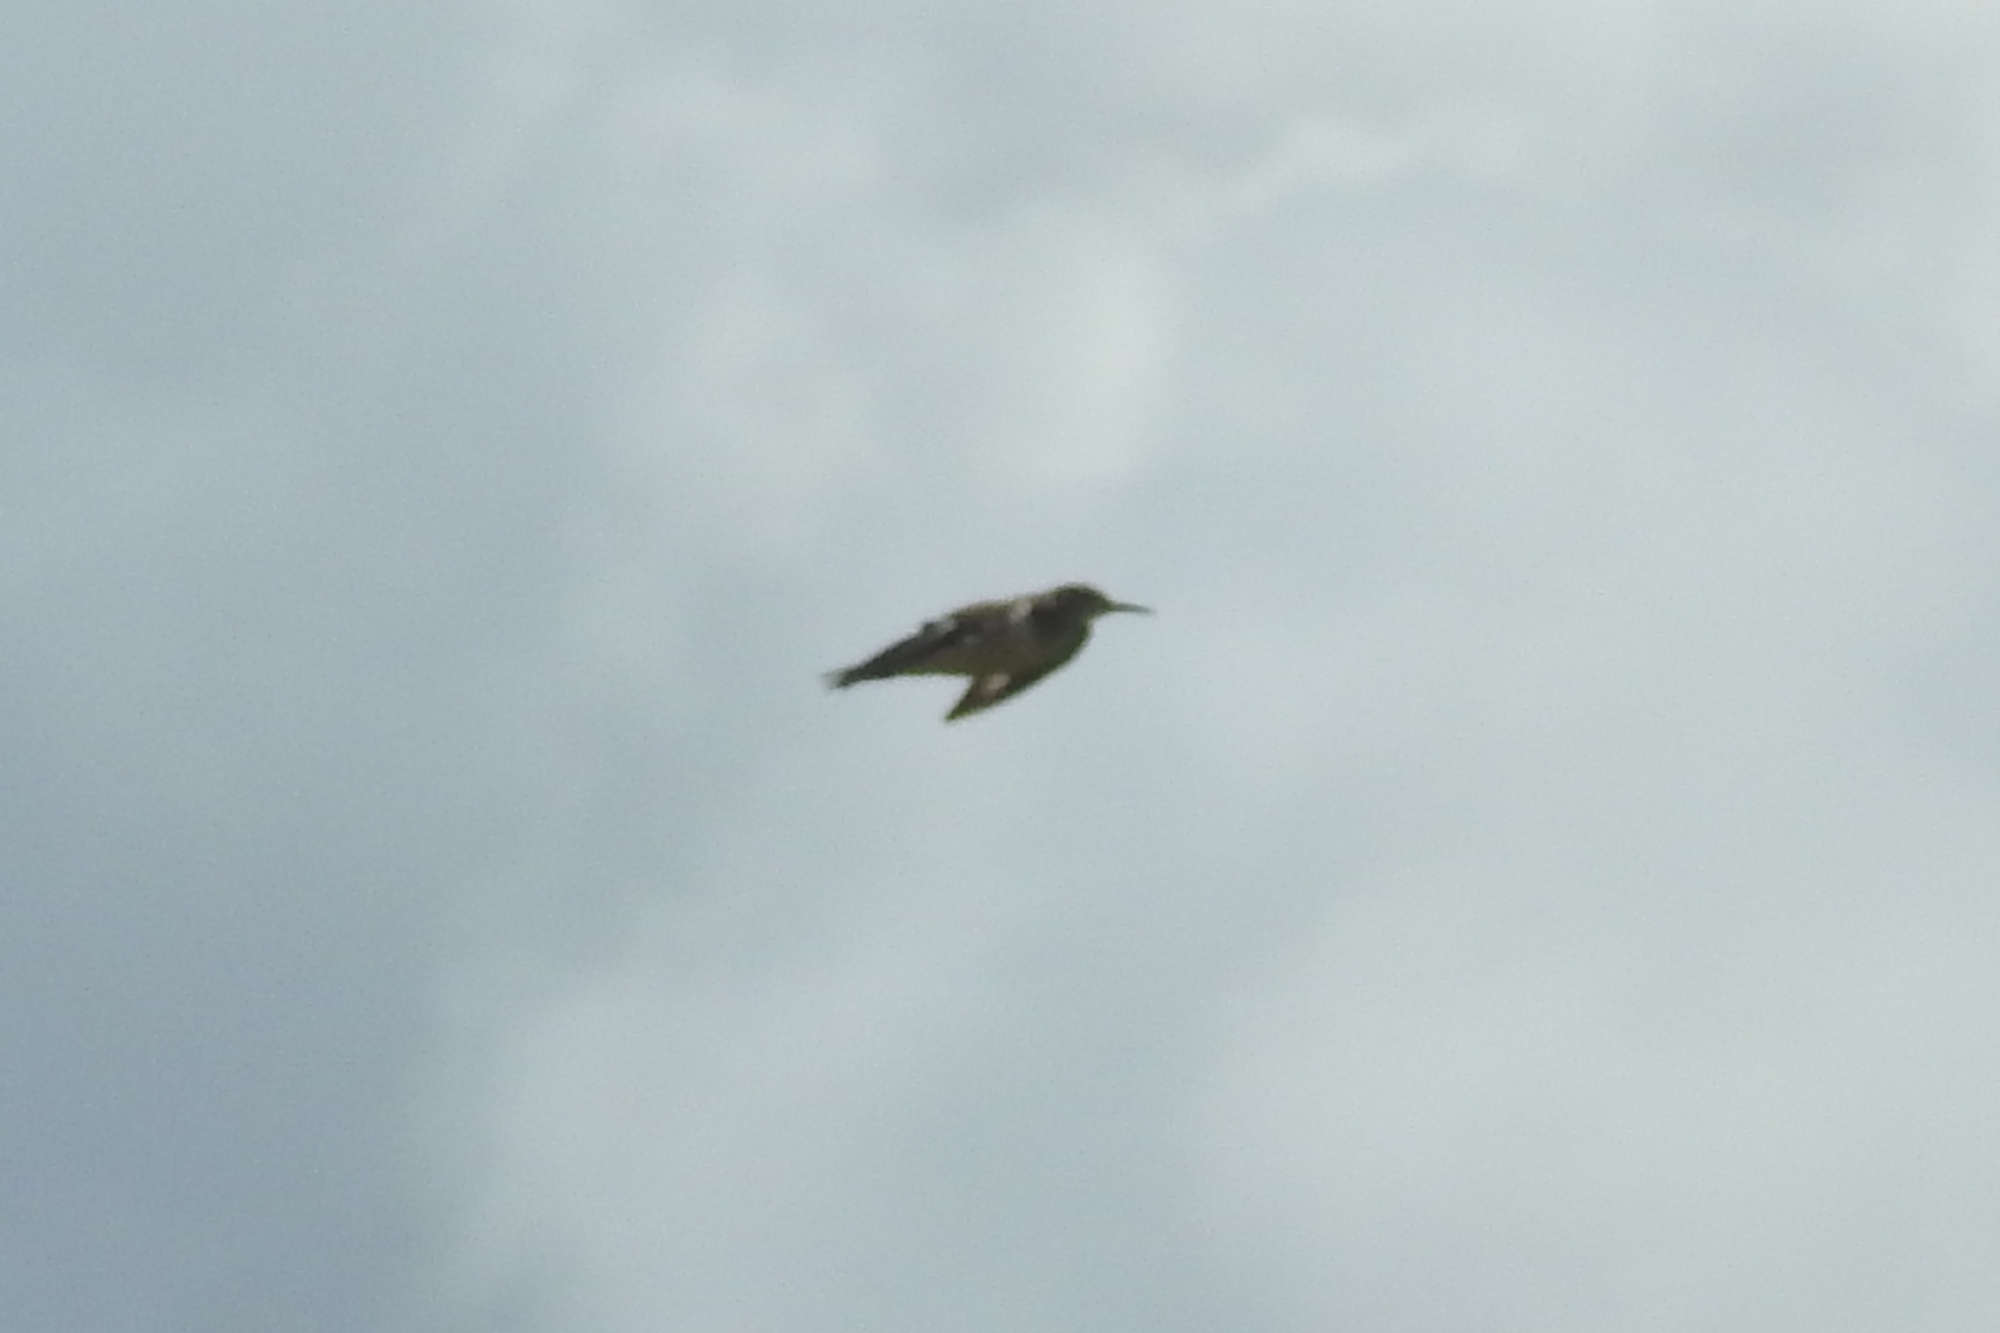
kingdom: Animalia
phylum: Chordata
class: Aves
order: Charadriiformes
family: Scolopacidae
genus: Actitis
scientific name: Actitis hypoleucos
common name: Common sandpiper
